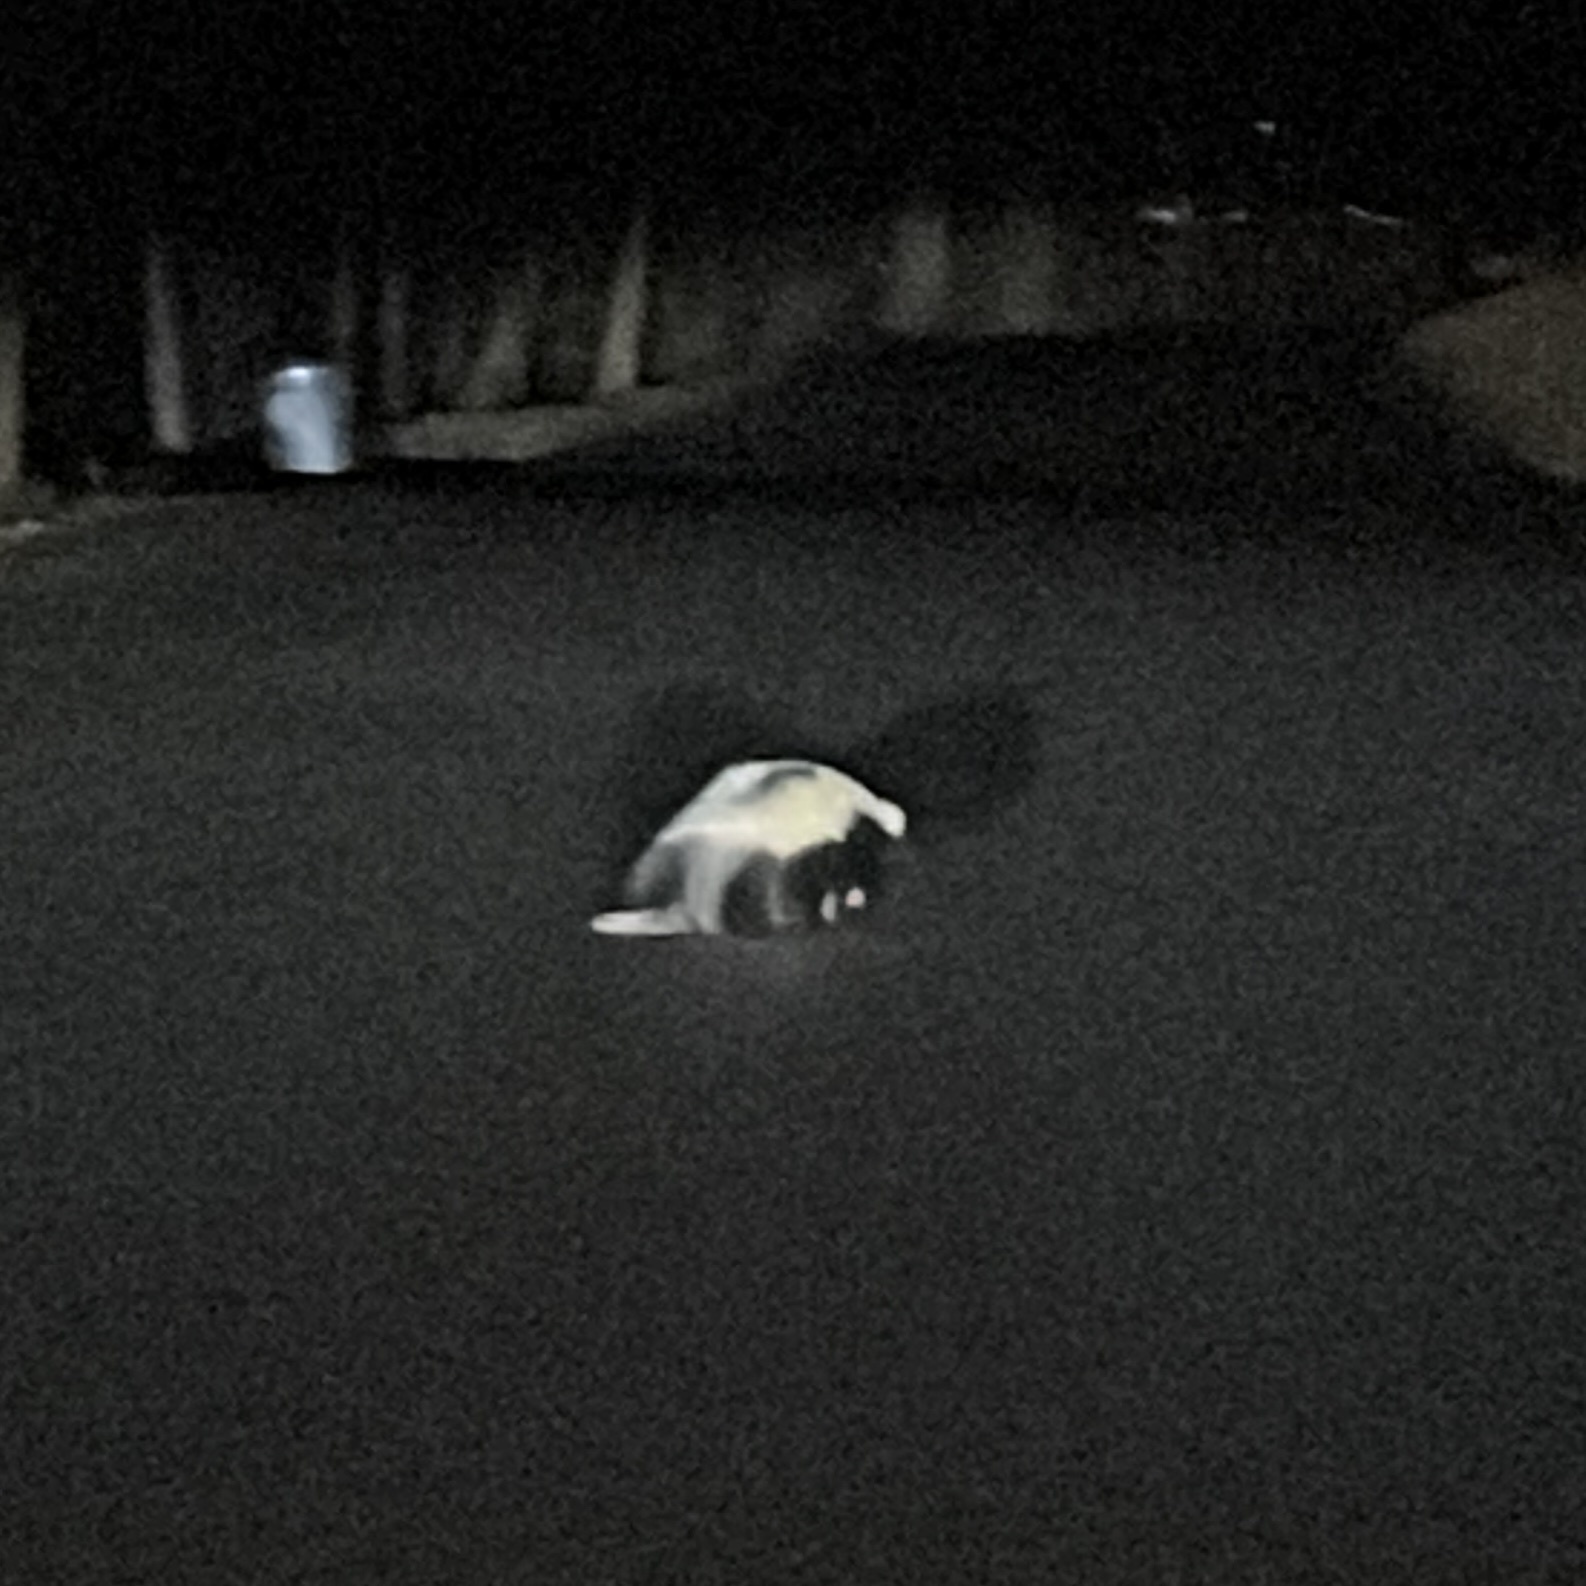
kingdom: Animalia
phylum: Chordata
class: Mammalia
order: Carnivora
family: Mephitidae
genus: Mephitis
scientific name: Mephitis mephitis
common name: Striped skunk
